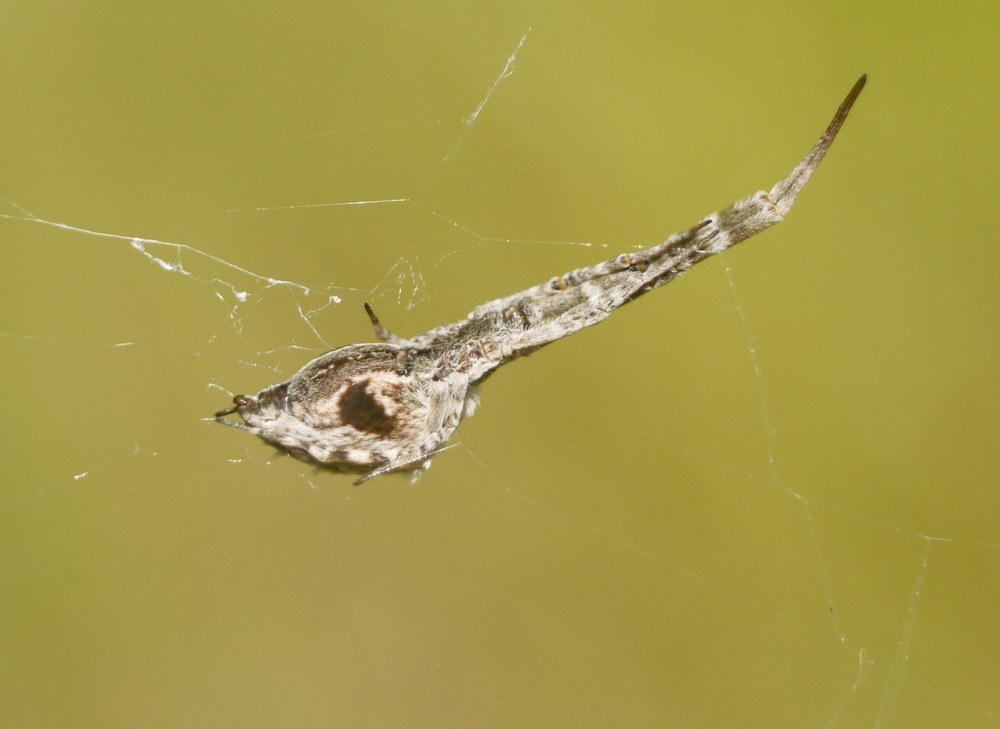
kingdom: Animalia
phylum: Arthropoda
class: Arachnida
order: Araneae
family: Uloboridae
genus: Uloborus
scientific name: Uloborus walckenaerius
